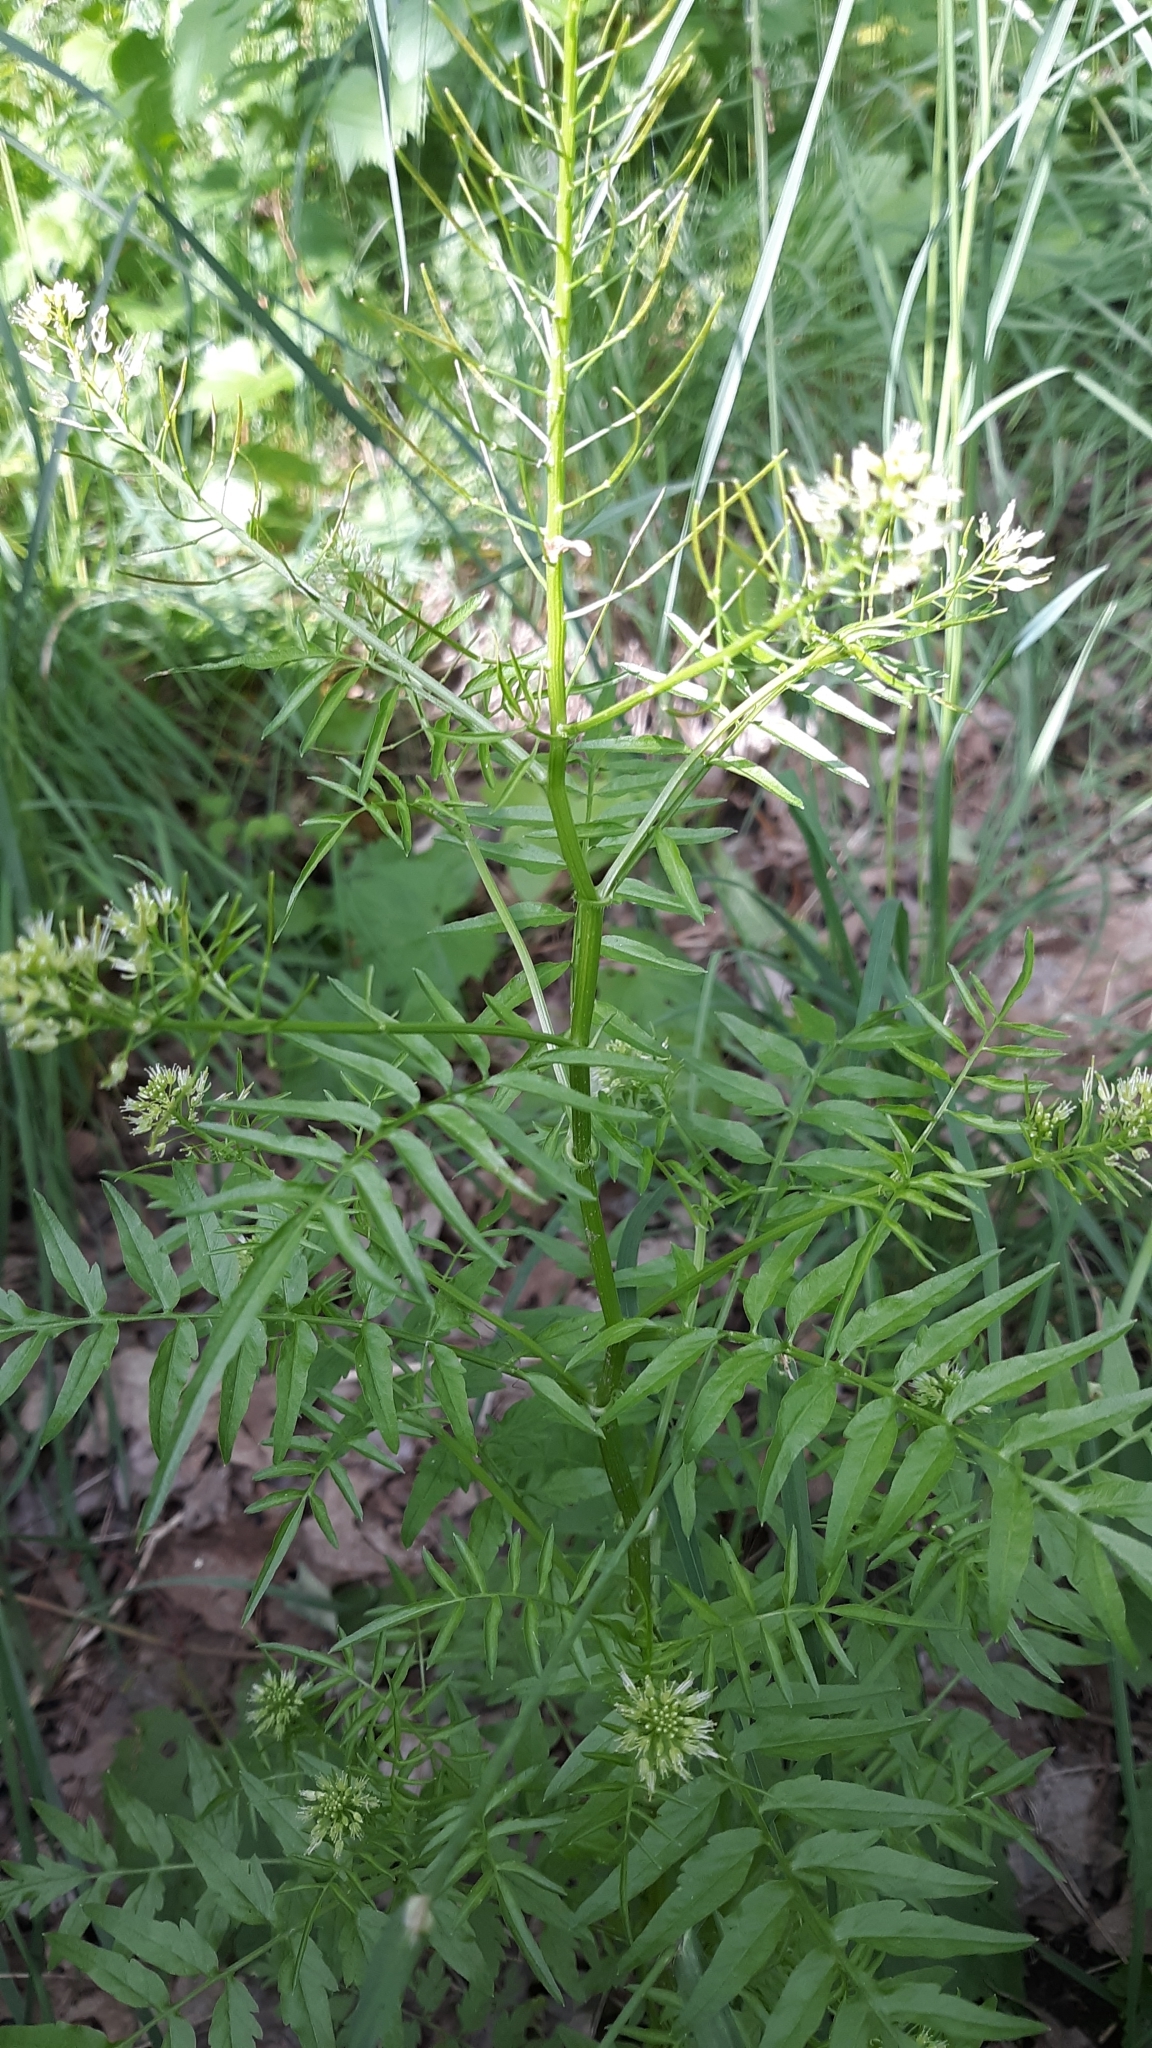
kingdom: Plantae
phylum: Tracheophyta
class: Magnoliopsida
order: Brassicales
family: Brassicaceae
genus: Cardamine
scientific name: Cardamine impatiens
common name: Narrow-leaved bitter-cress
